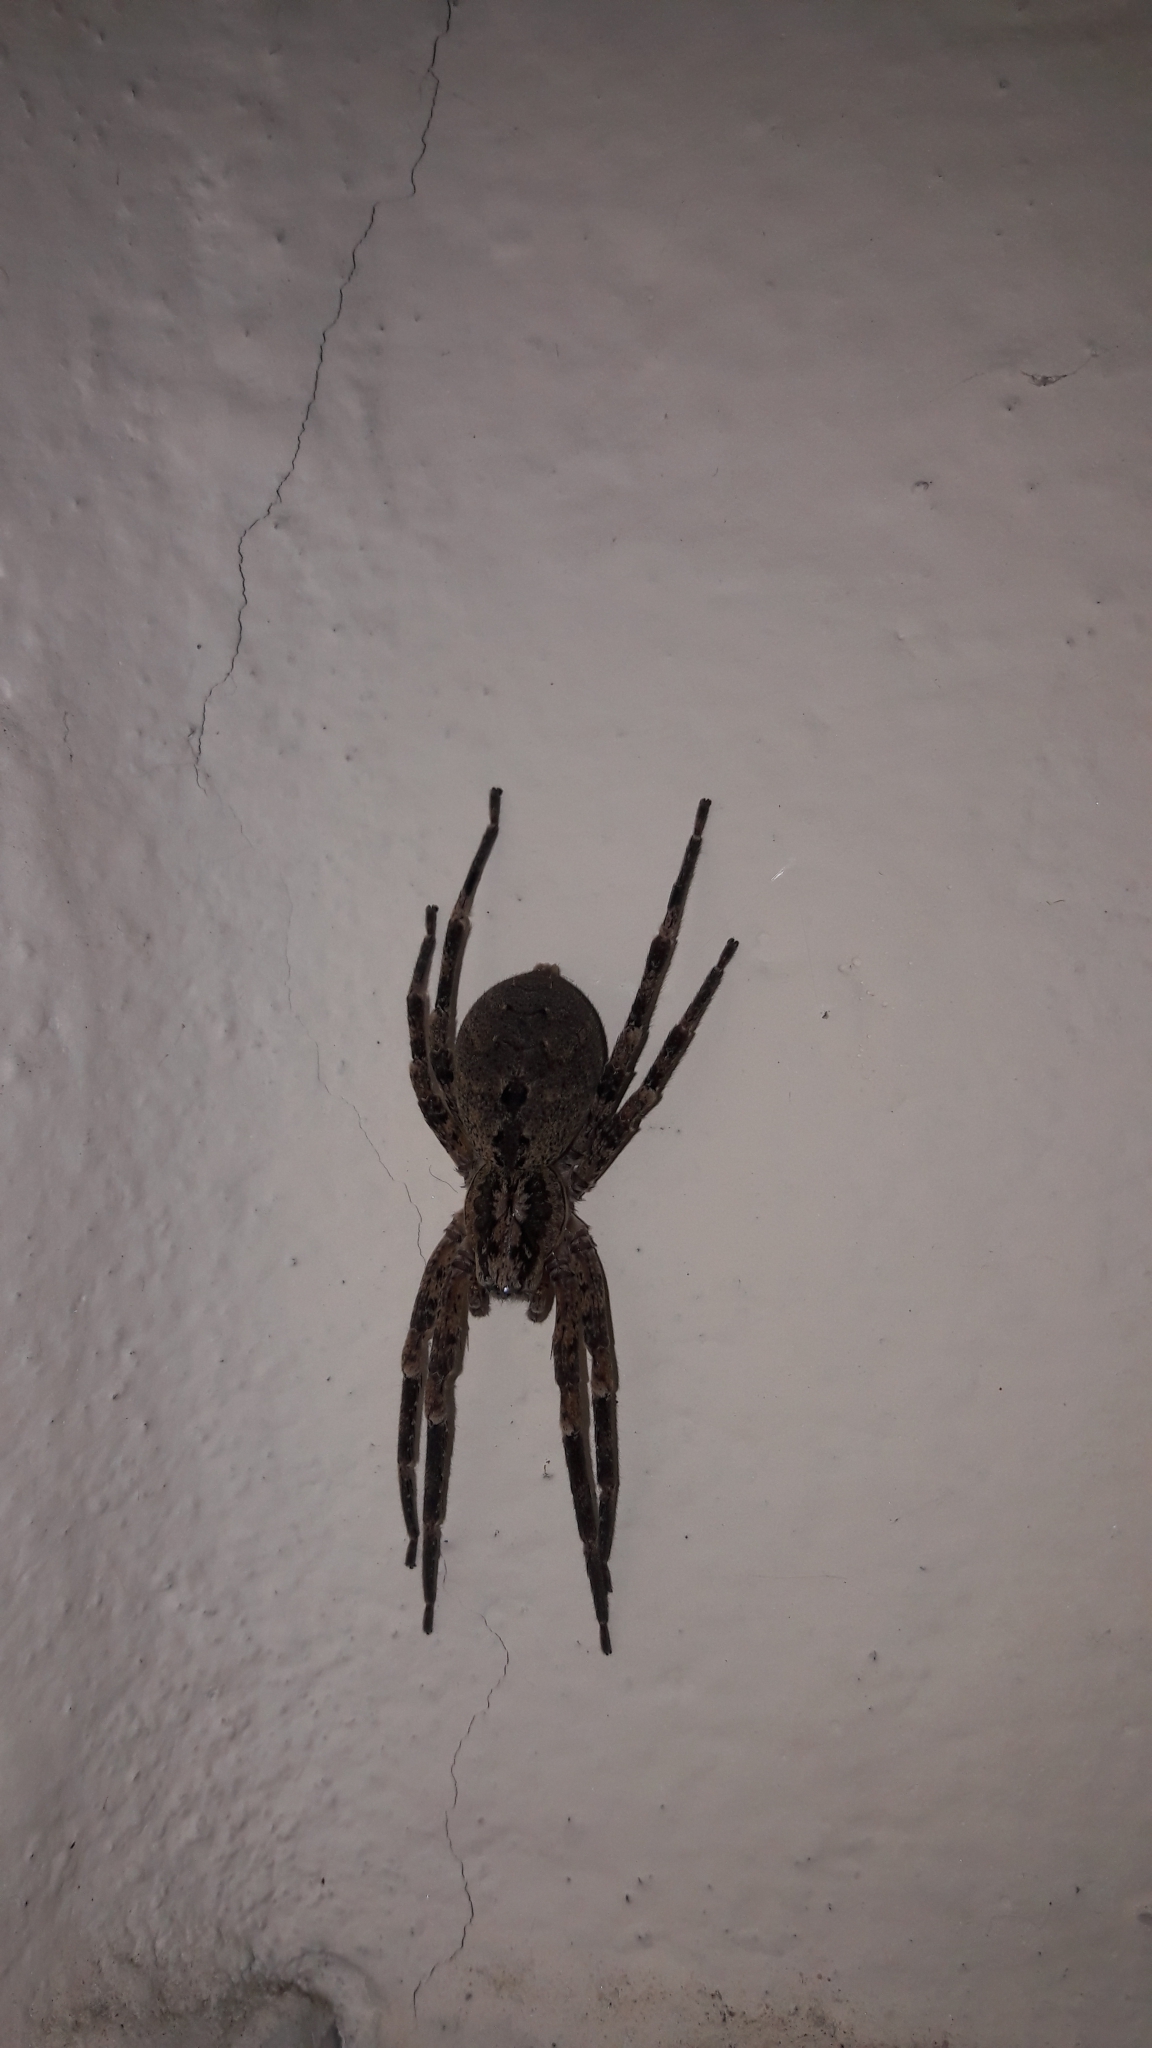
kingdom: Animalia
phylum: Arthropoda
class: Arachnida
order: Araneae
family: Zoropsidae
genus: Zoropsis
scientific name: Zoropsis spinimana
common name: Zoropsid spider
